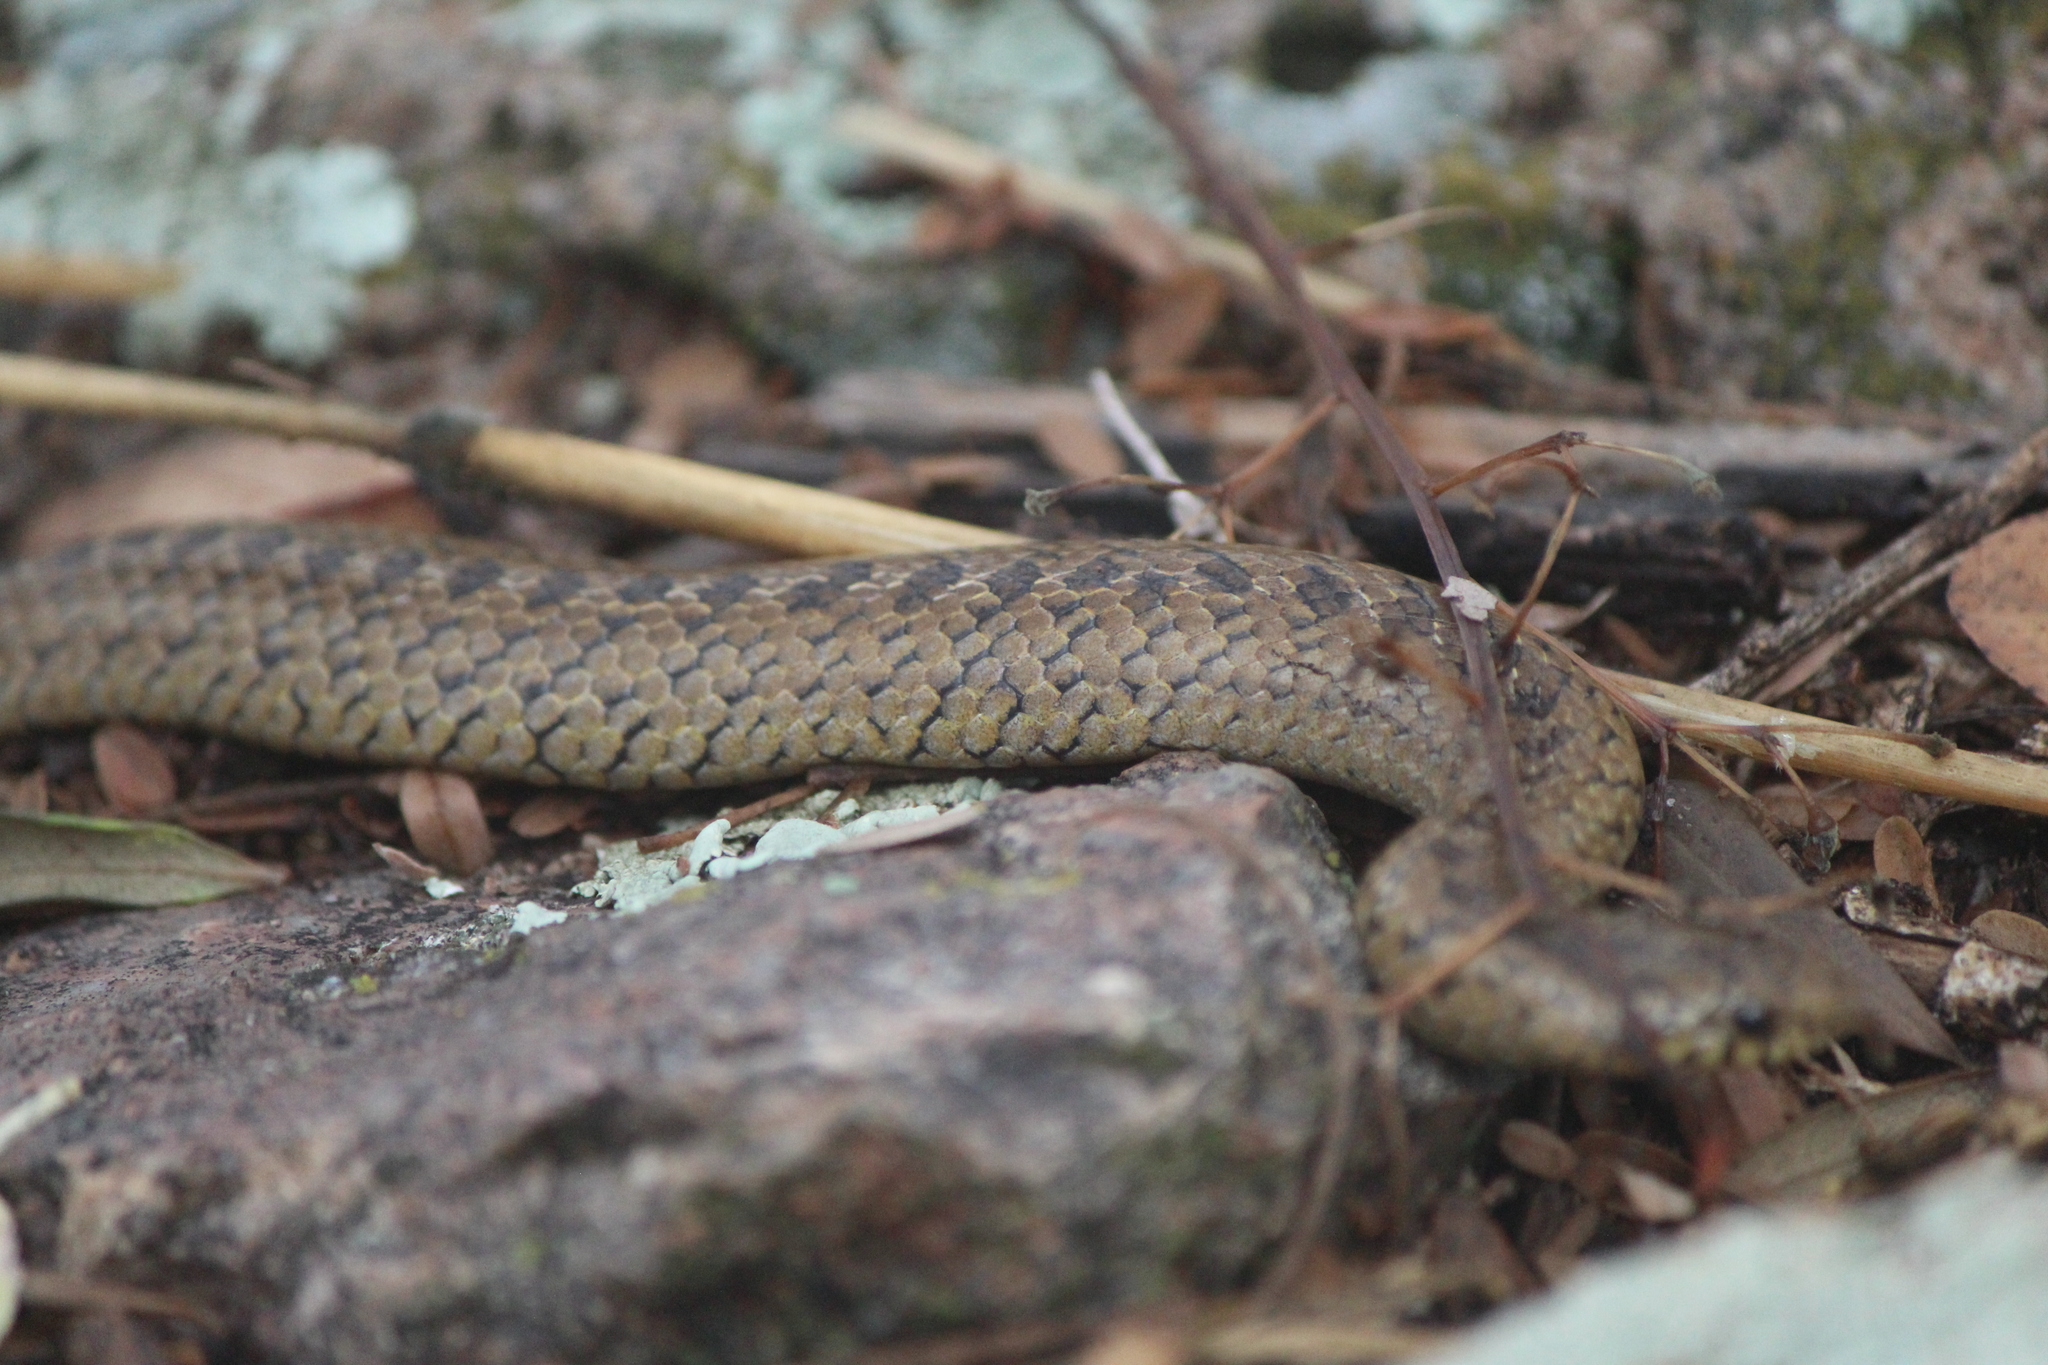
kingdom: Animalia
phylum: Chordata
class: Squamata
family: Colubridae
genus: Conopsis
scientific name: Conopsis nasus
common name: Largenose earth snake
